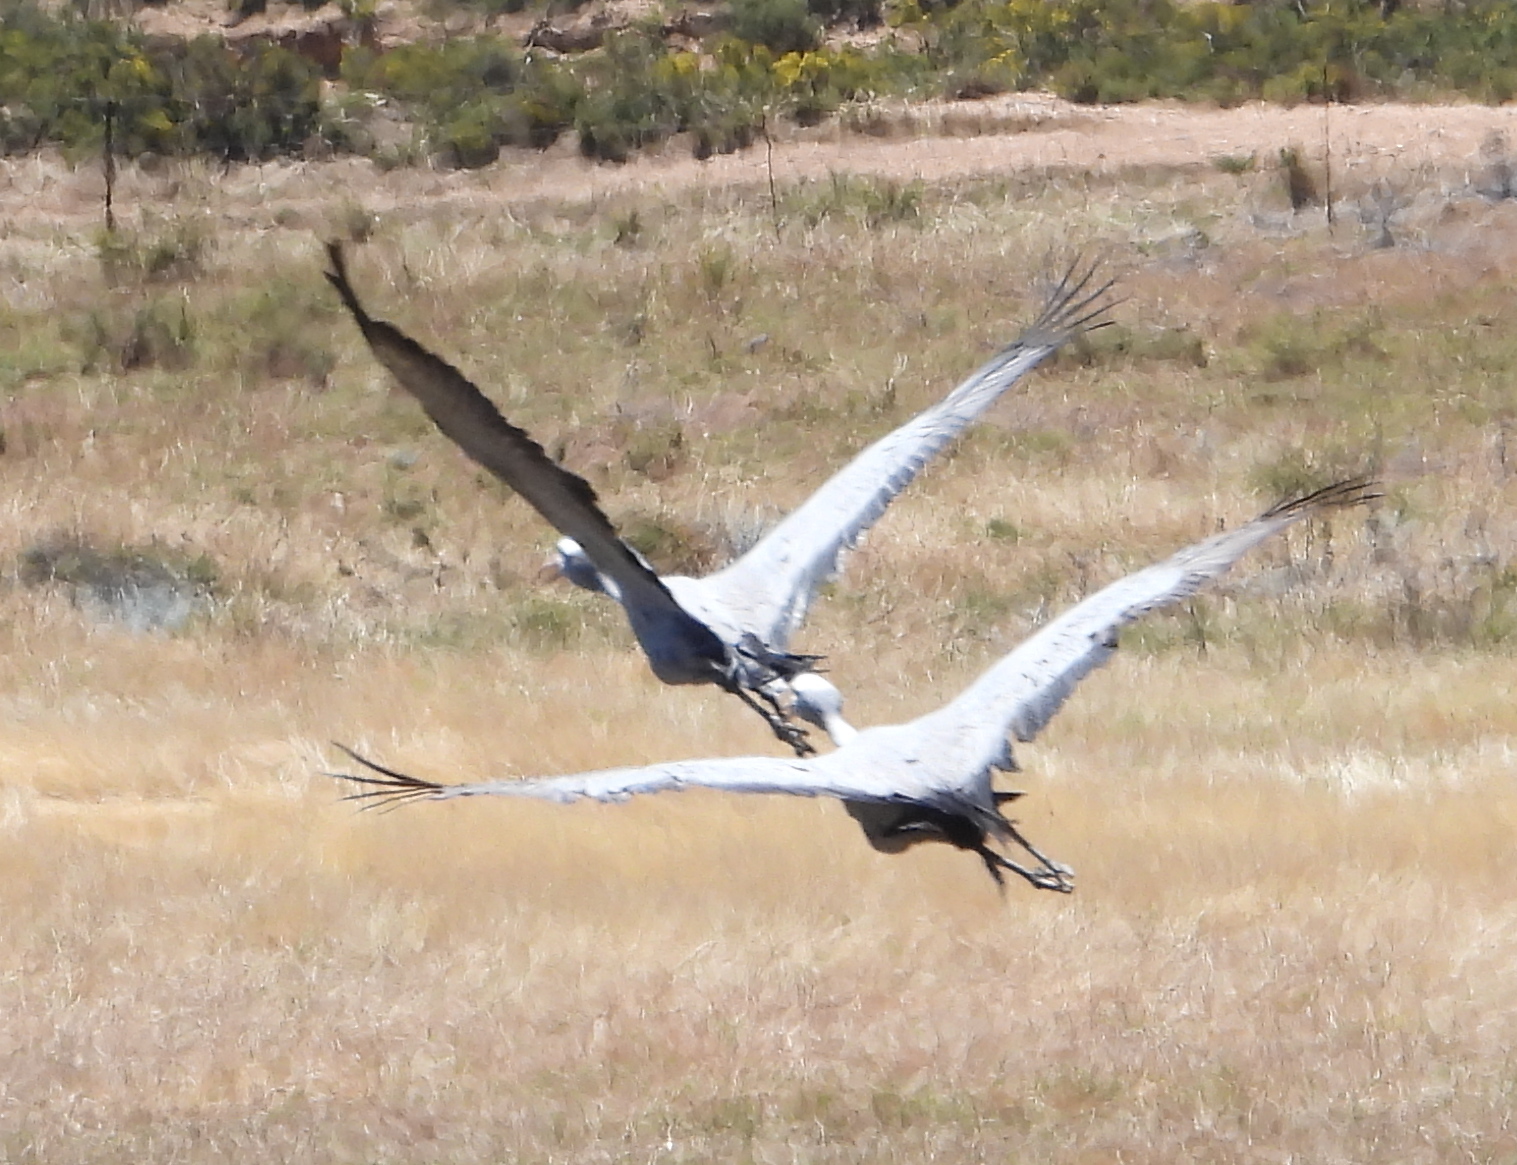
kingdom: Animalia
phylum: Chordata
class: Aves
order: Gruiformes
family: Gruidae
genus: Anthropoides
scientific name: Anthropoides paradiseus
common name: Blue crane
